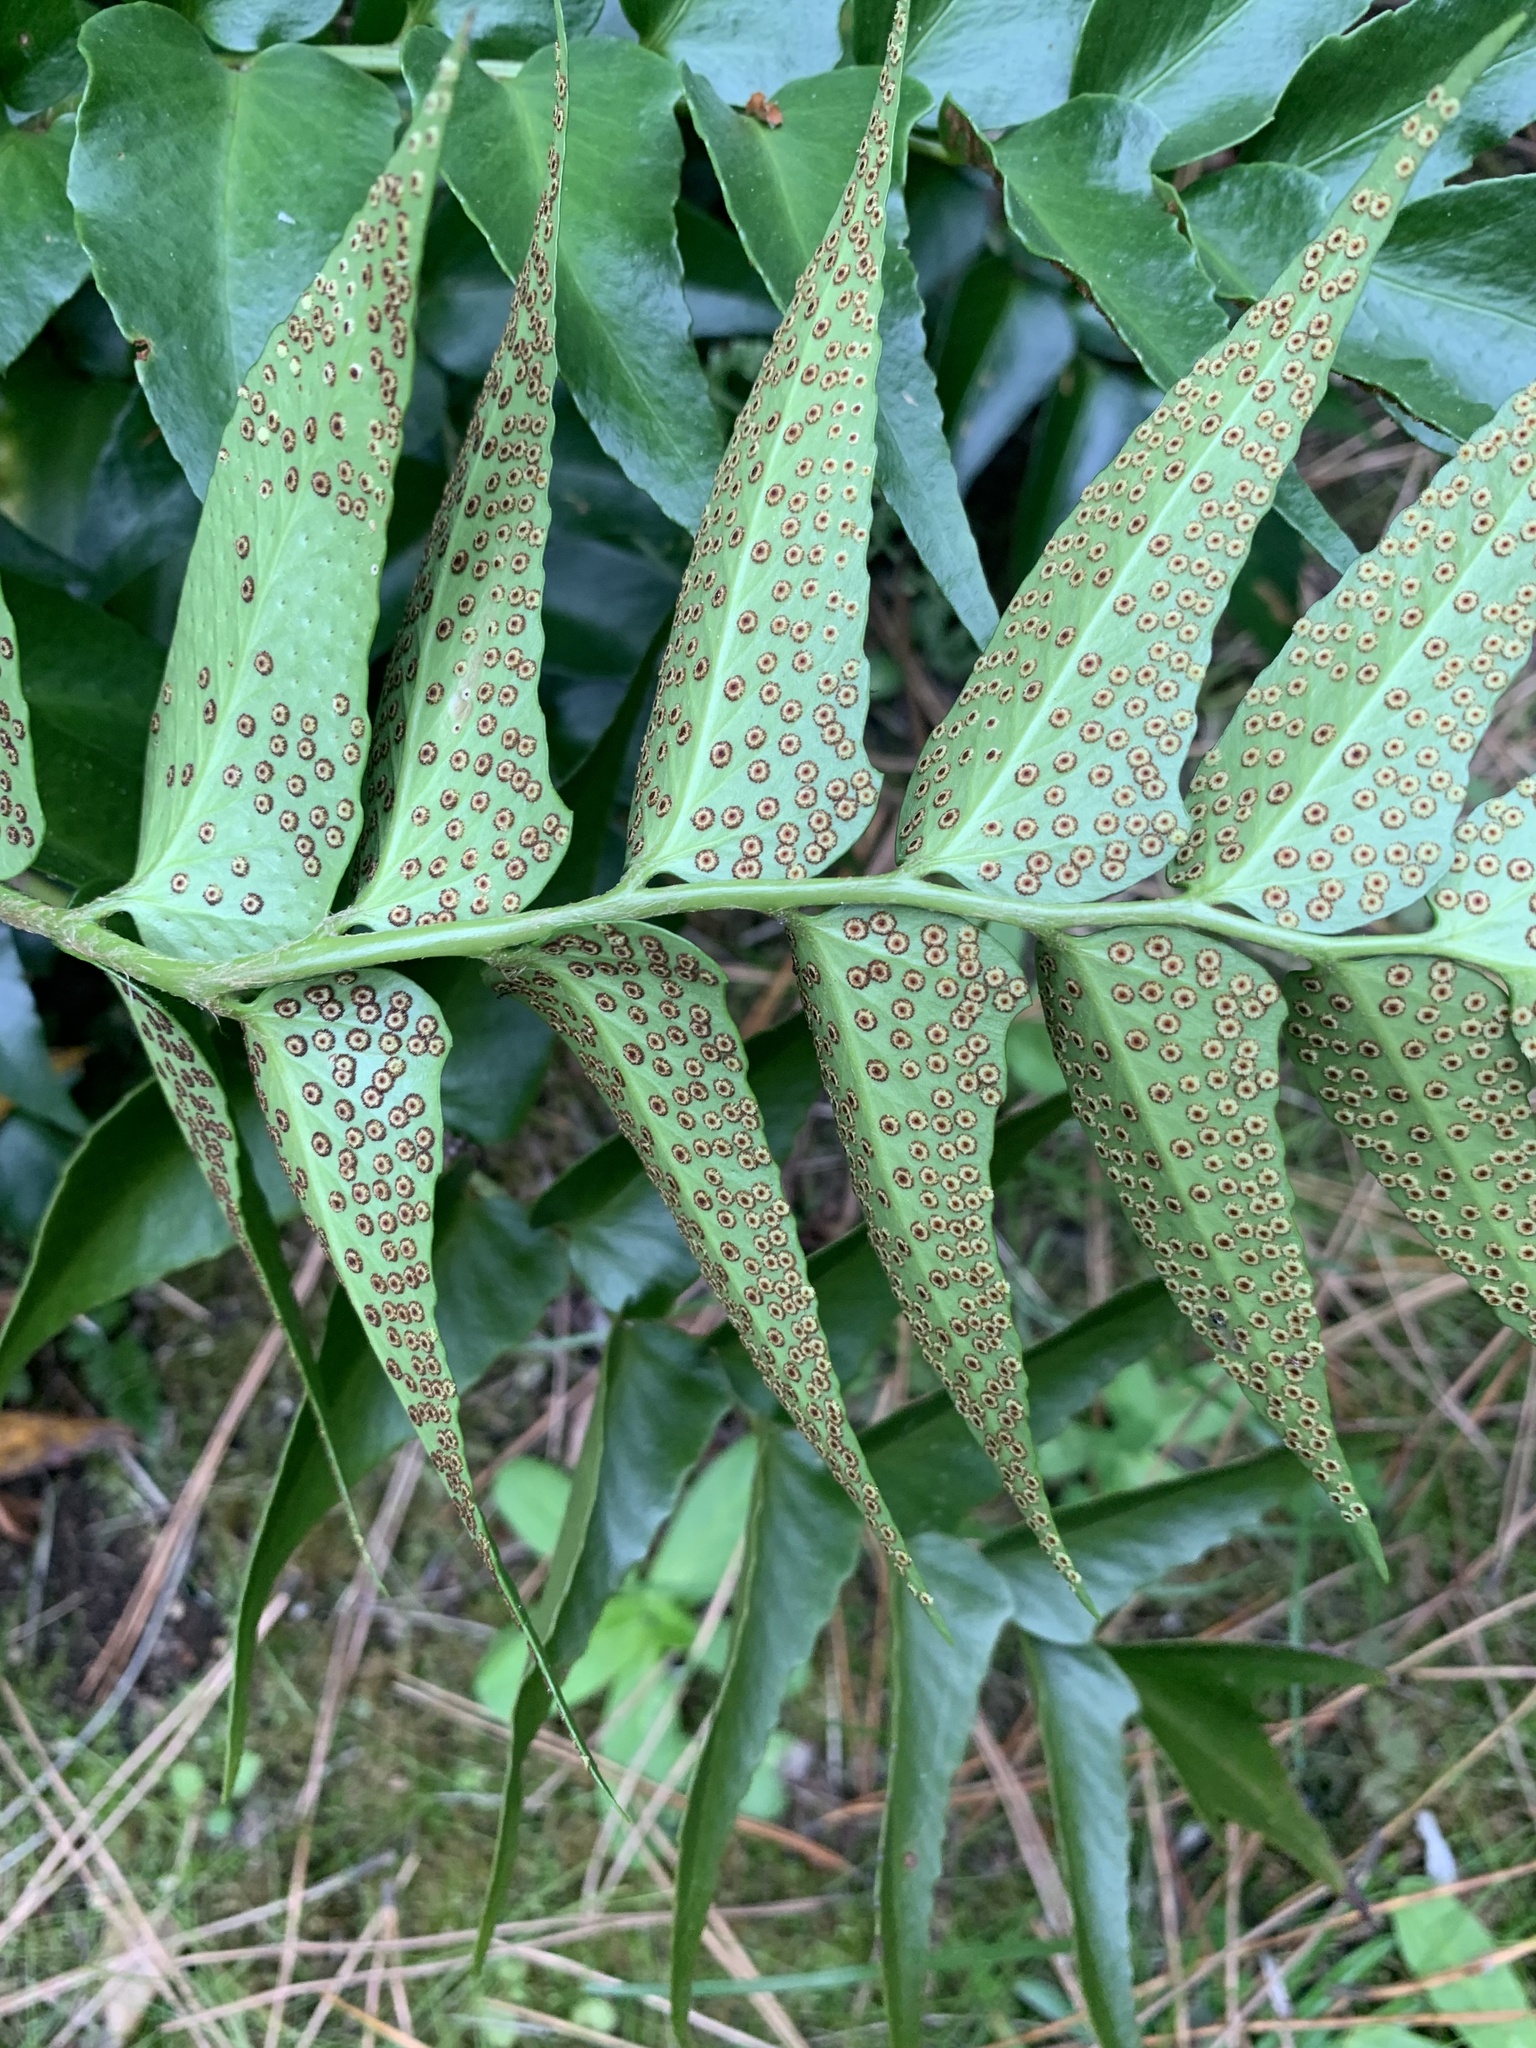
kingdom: Plantae
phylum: Tracheophyta
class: Polypodiopsida
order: Polypodiales
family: Dryopteridaceae
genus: Cyrtomium
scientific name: Cyrtomium falcatum
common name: House holly-fern
